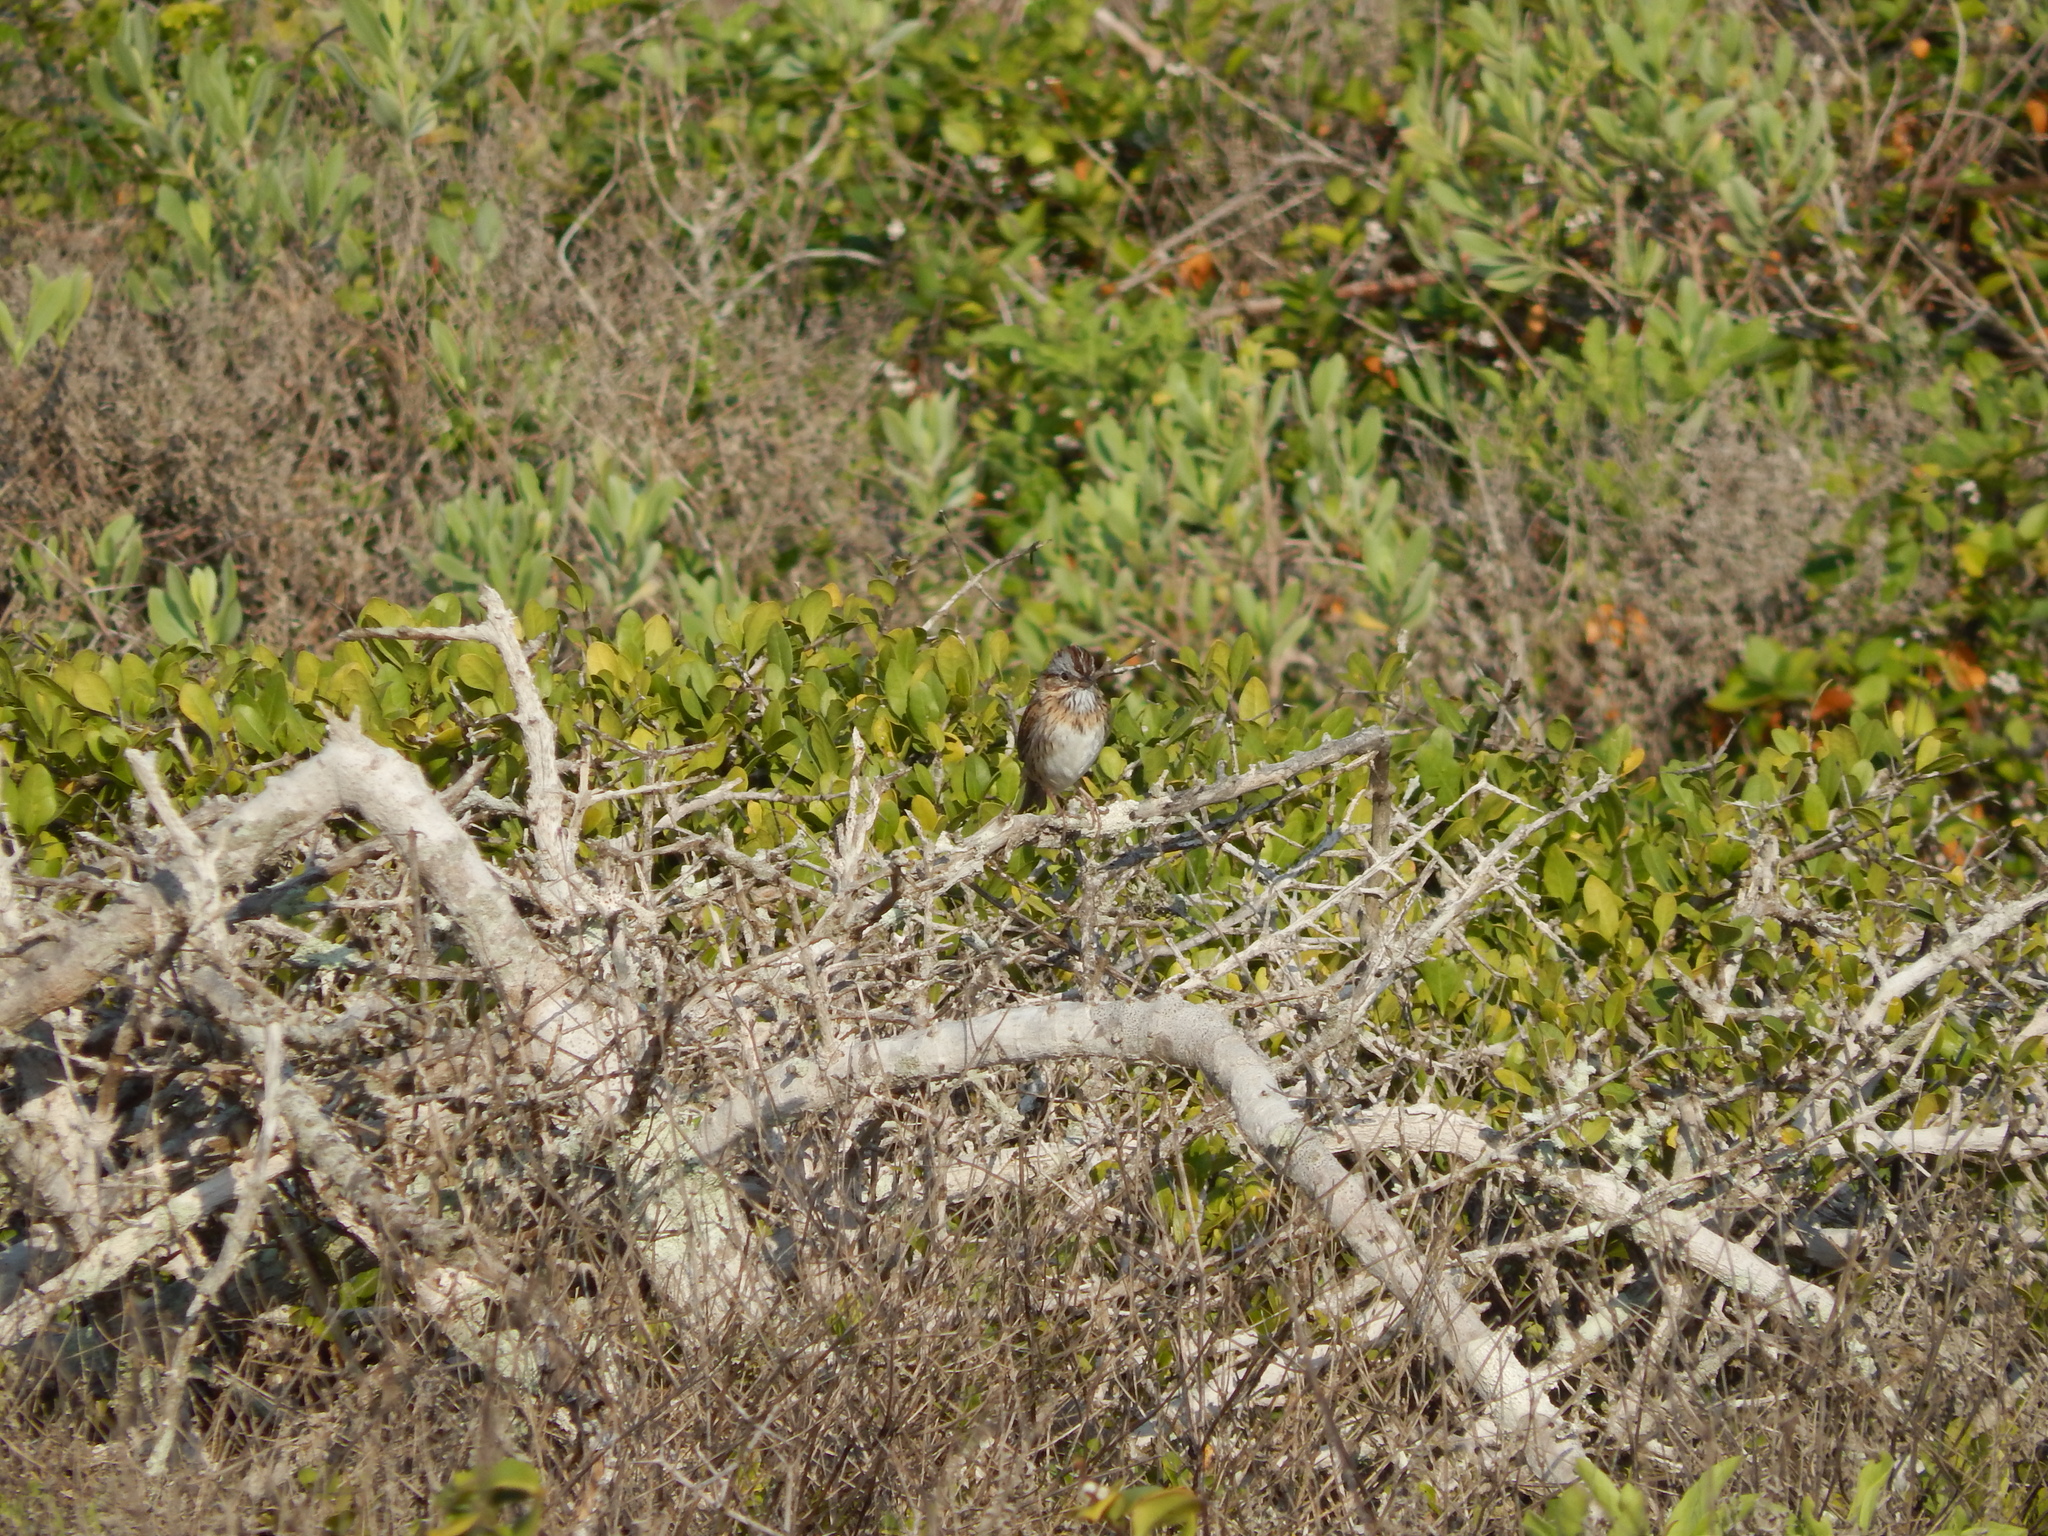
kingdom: Animalia
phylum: Chordata
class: Aves
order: Passeriformes
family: Passerellidae
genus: Melospiza
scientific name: Melospiza lincolnii
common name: Lincoln's sparrow
